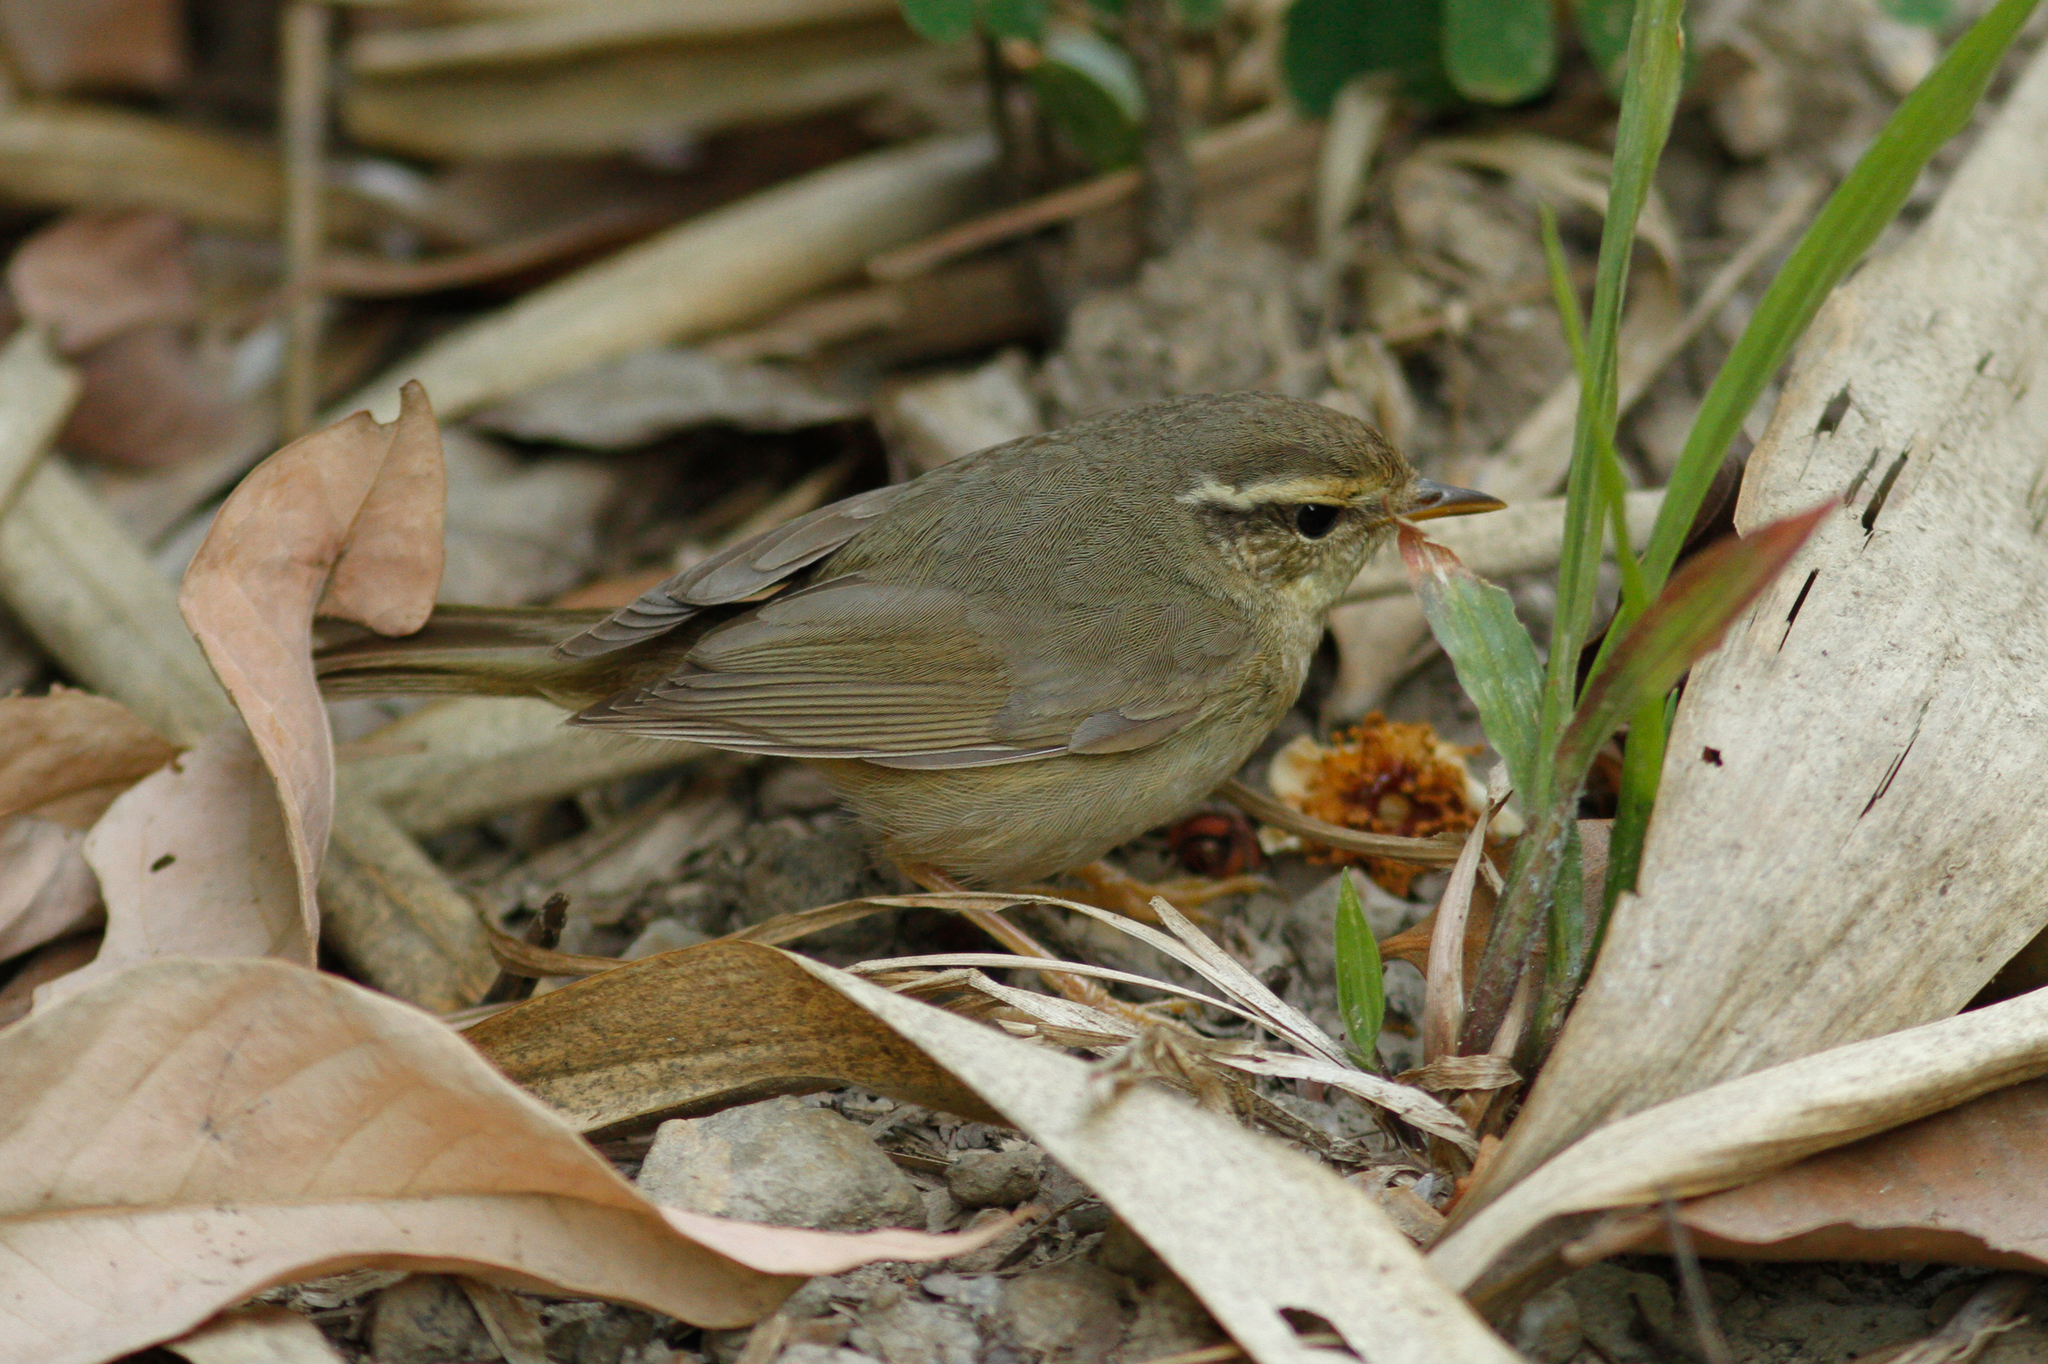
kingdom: Animalia
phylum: Chordata
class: Aves
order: Passeriformes
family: Phylloscopidae
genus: Phylloscopus
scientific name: Phylloscopus schwarzi
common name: Radde's warbler
